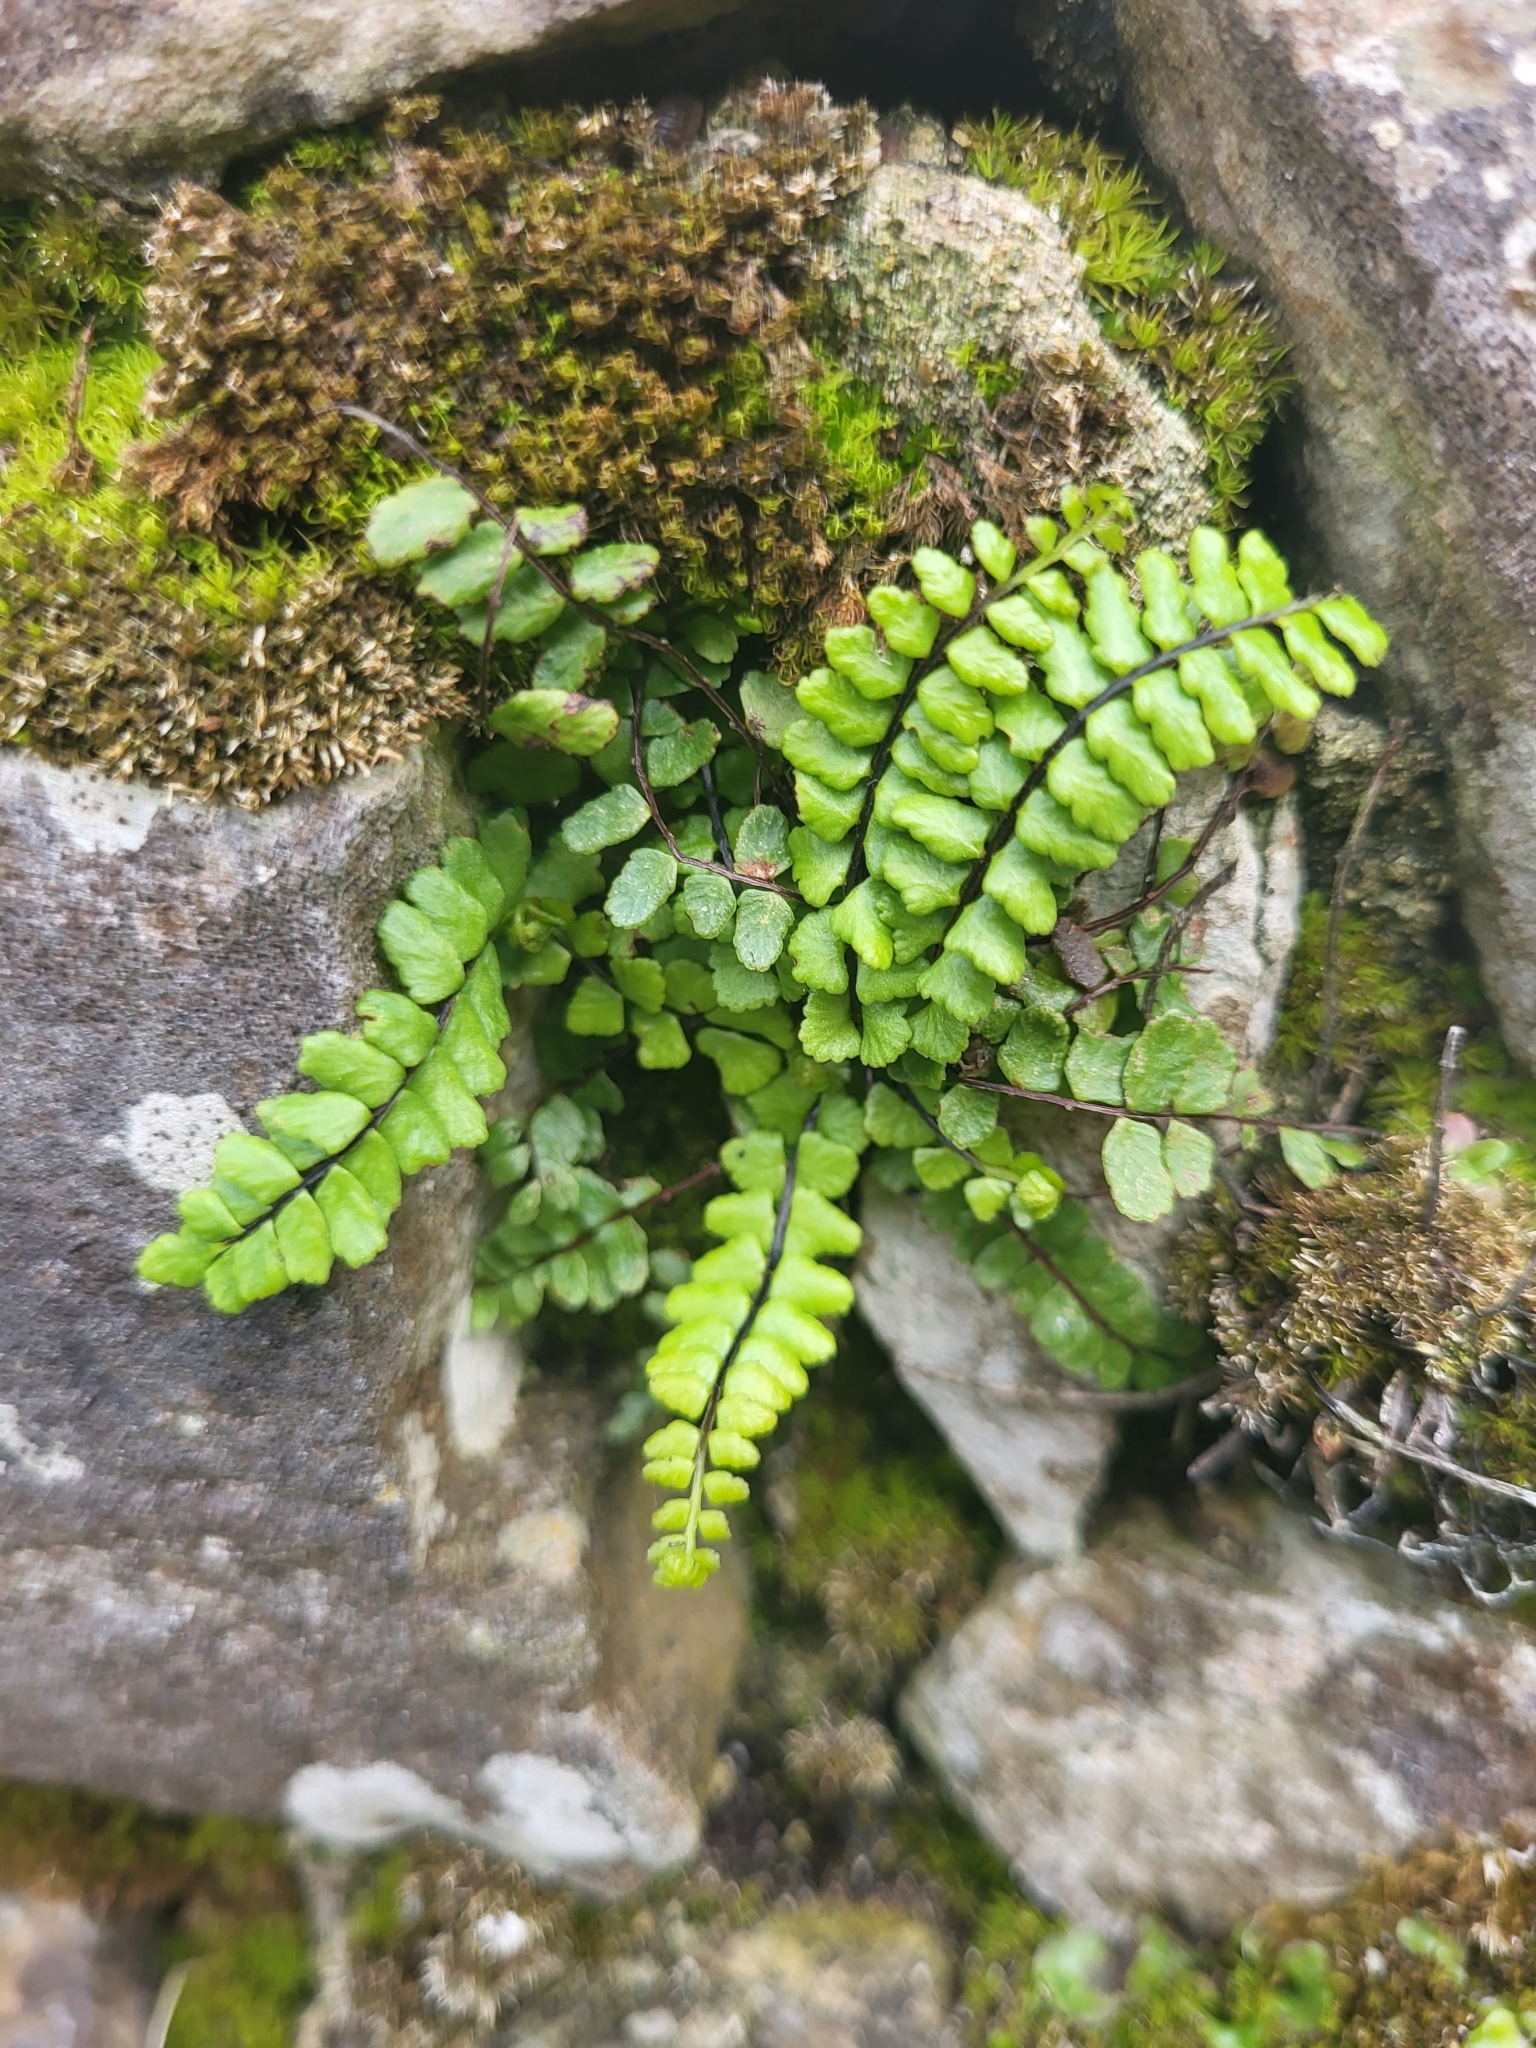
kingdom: Plantae
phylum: Tracheophyta
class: Polypodiopsida
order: Polypodiales
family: Aspleniaceae
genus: Asplenium
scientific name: Asplenium trichomanes
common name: Maidenhair spleenwort
